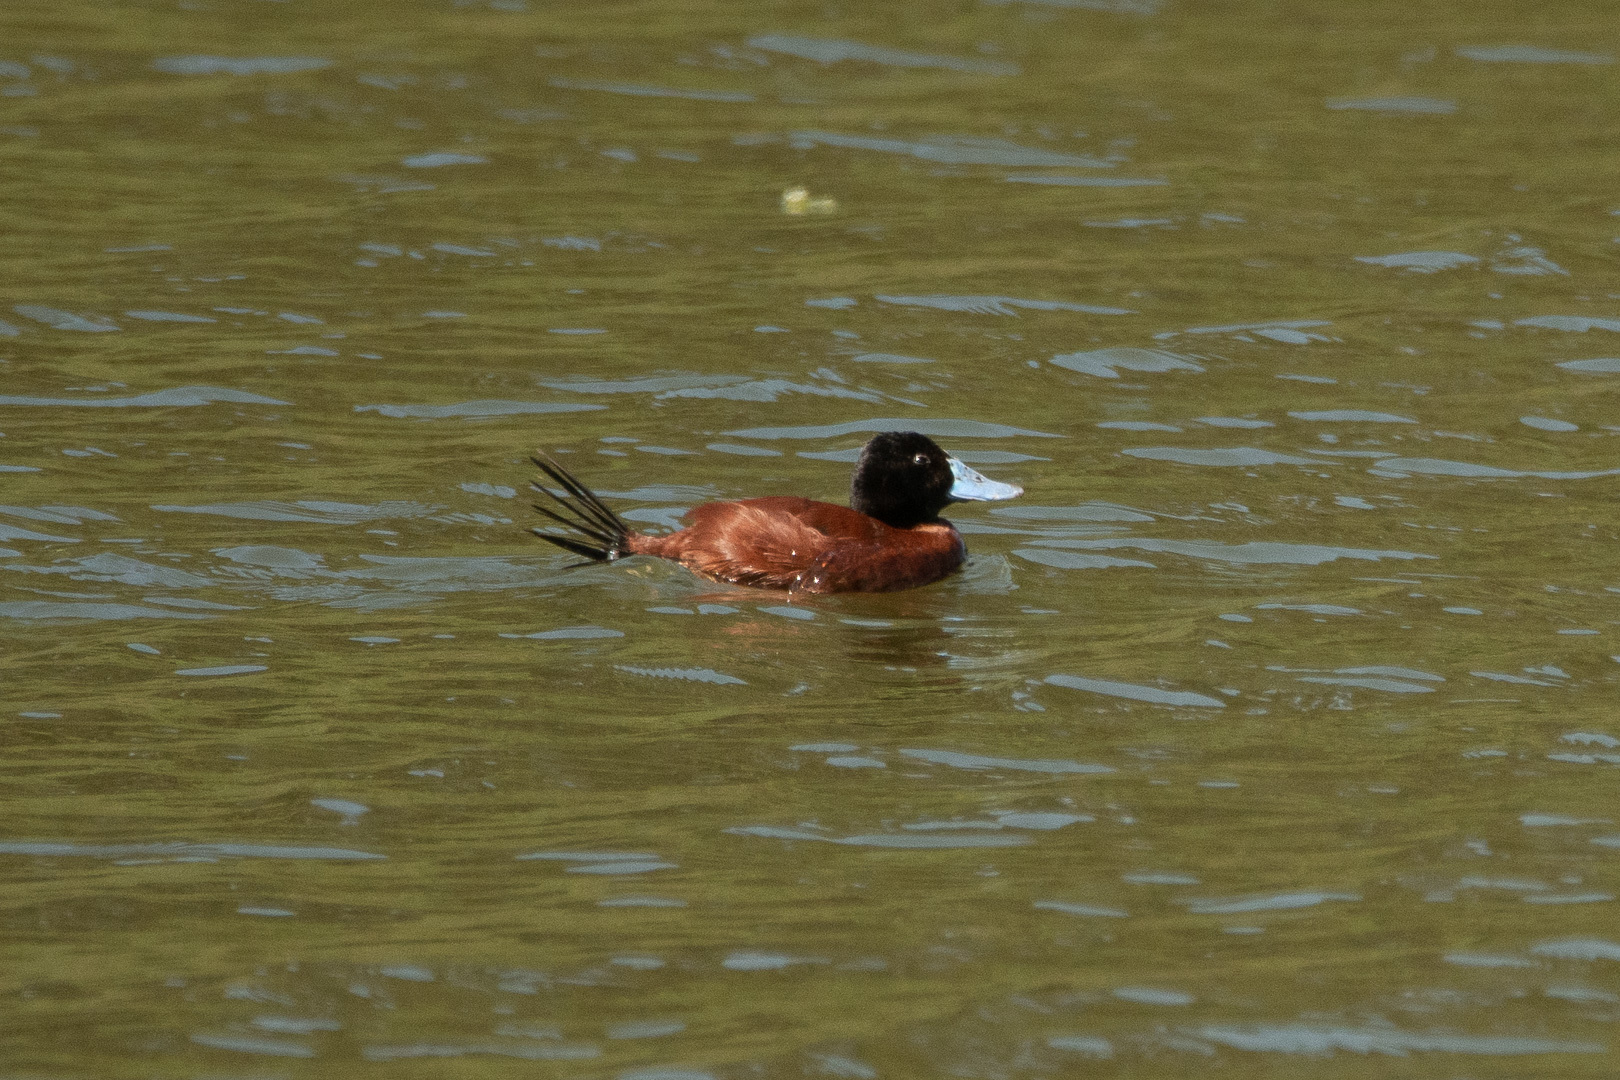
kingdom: Animalia
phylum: Chordata
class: Aves
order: Anseriformes
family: Anatidae
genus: Oxyura
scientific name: Oxyura vittata
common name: Lake duck
